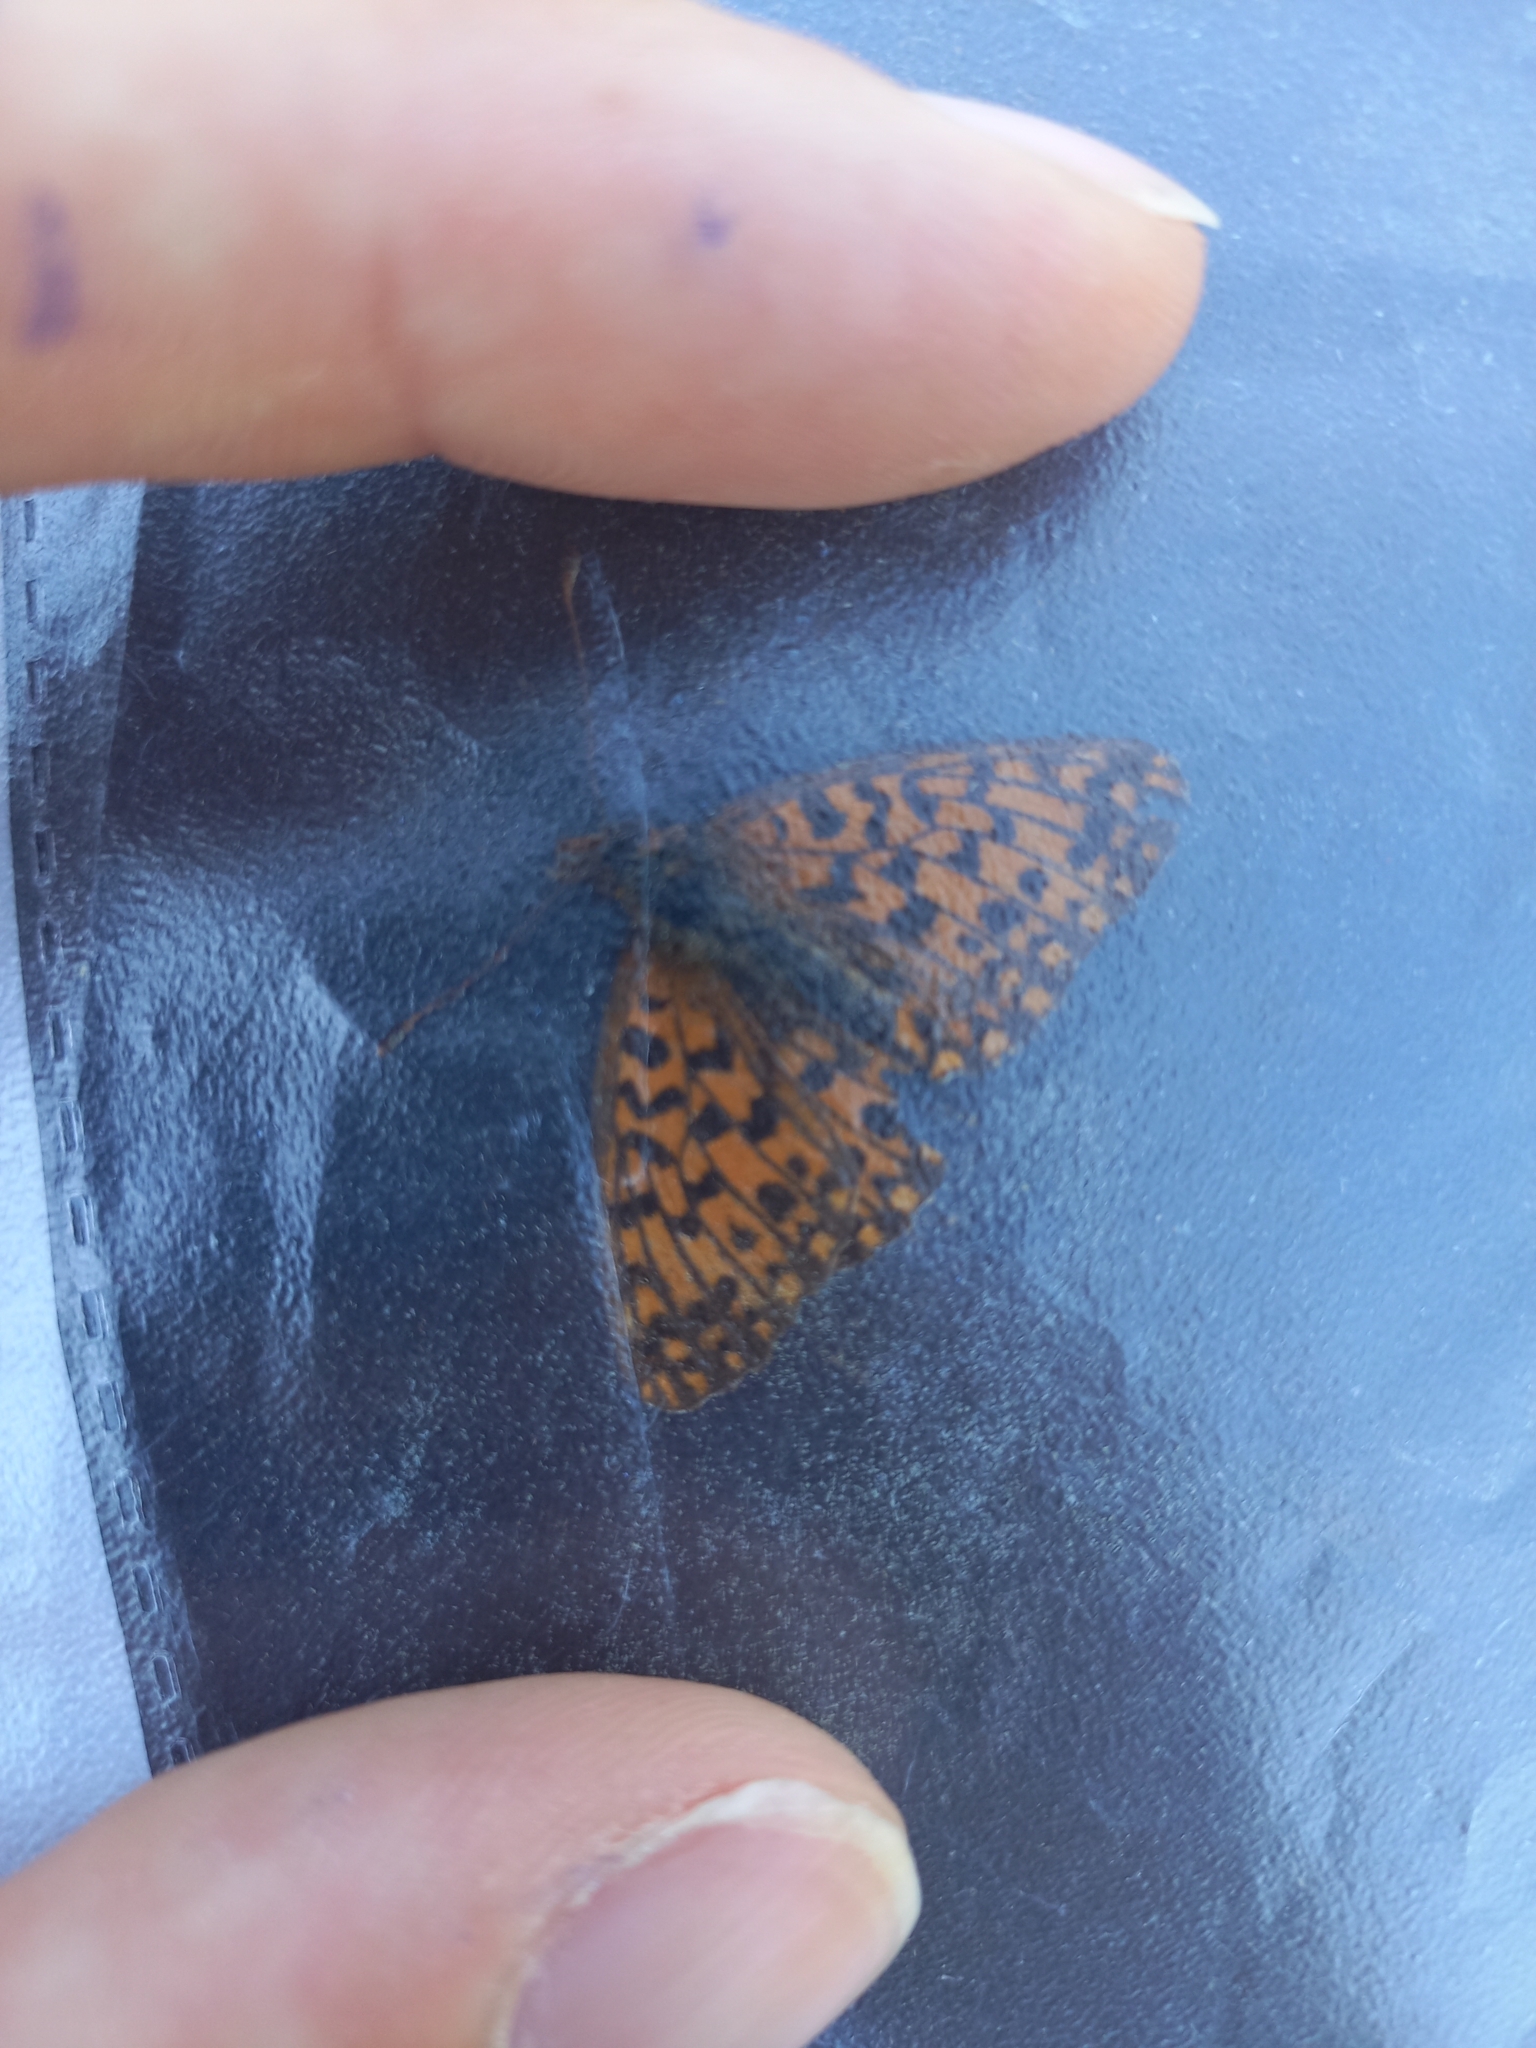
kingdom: Animalia
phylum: Arthropoda
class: Insecta
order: Lepidoptera
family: Nymphalidae
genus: Boloria
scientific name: Boloria dia
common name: Weaver's fritillary
